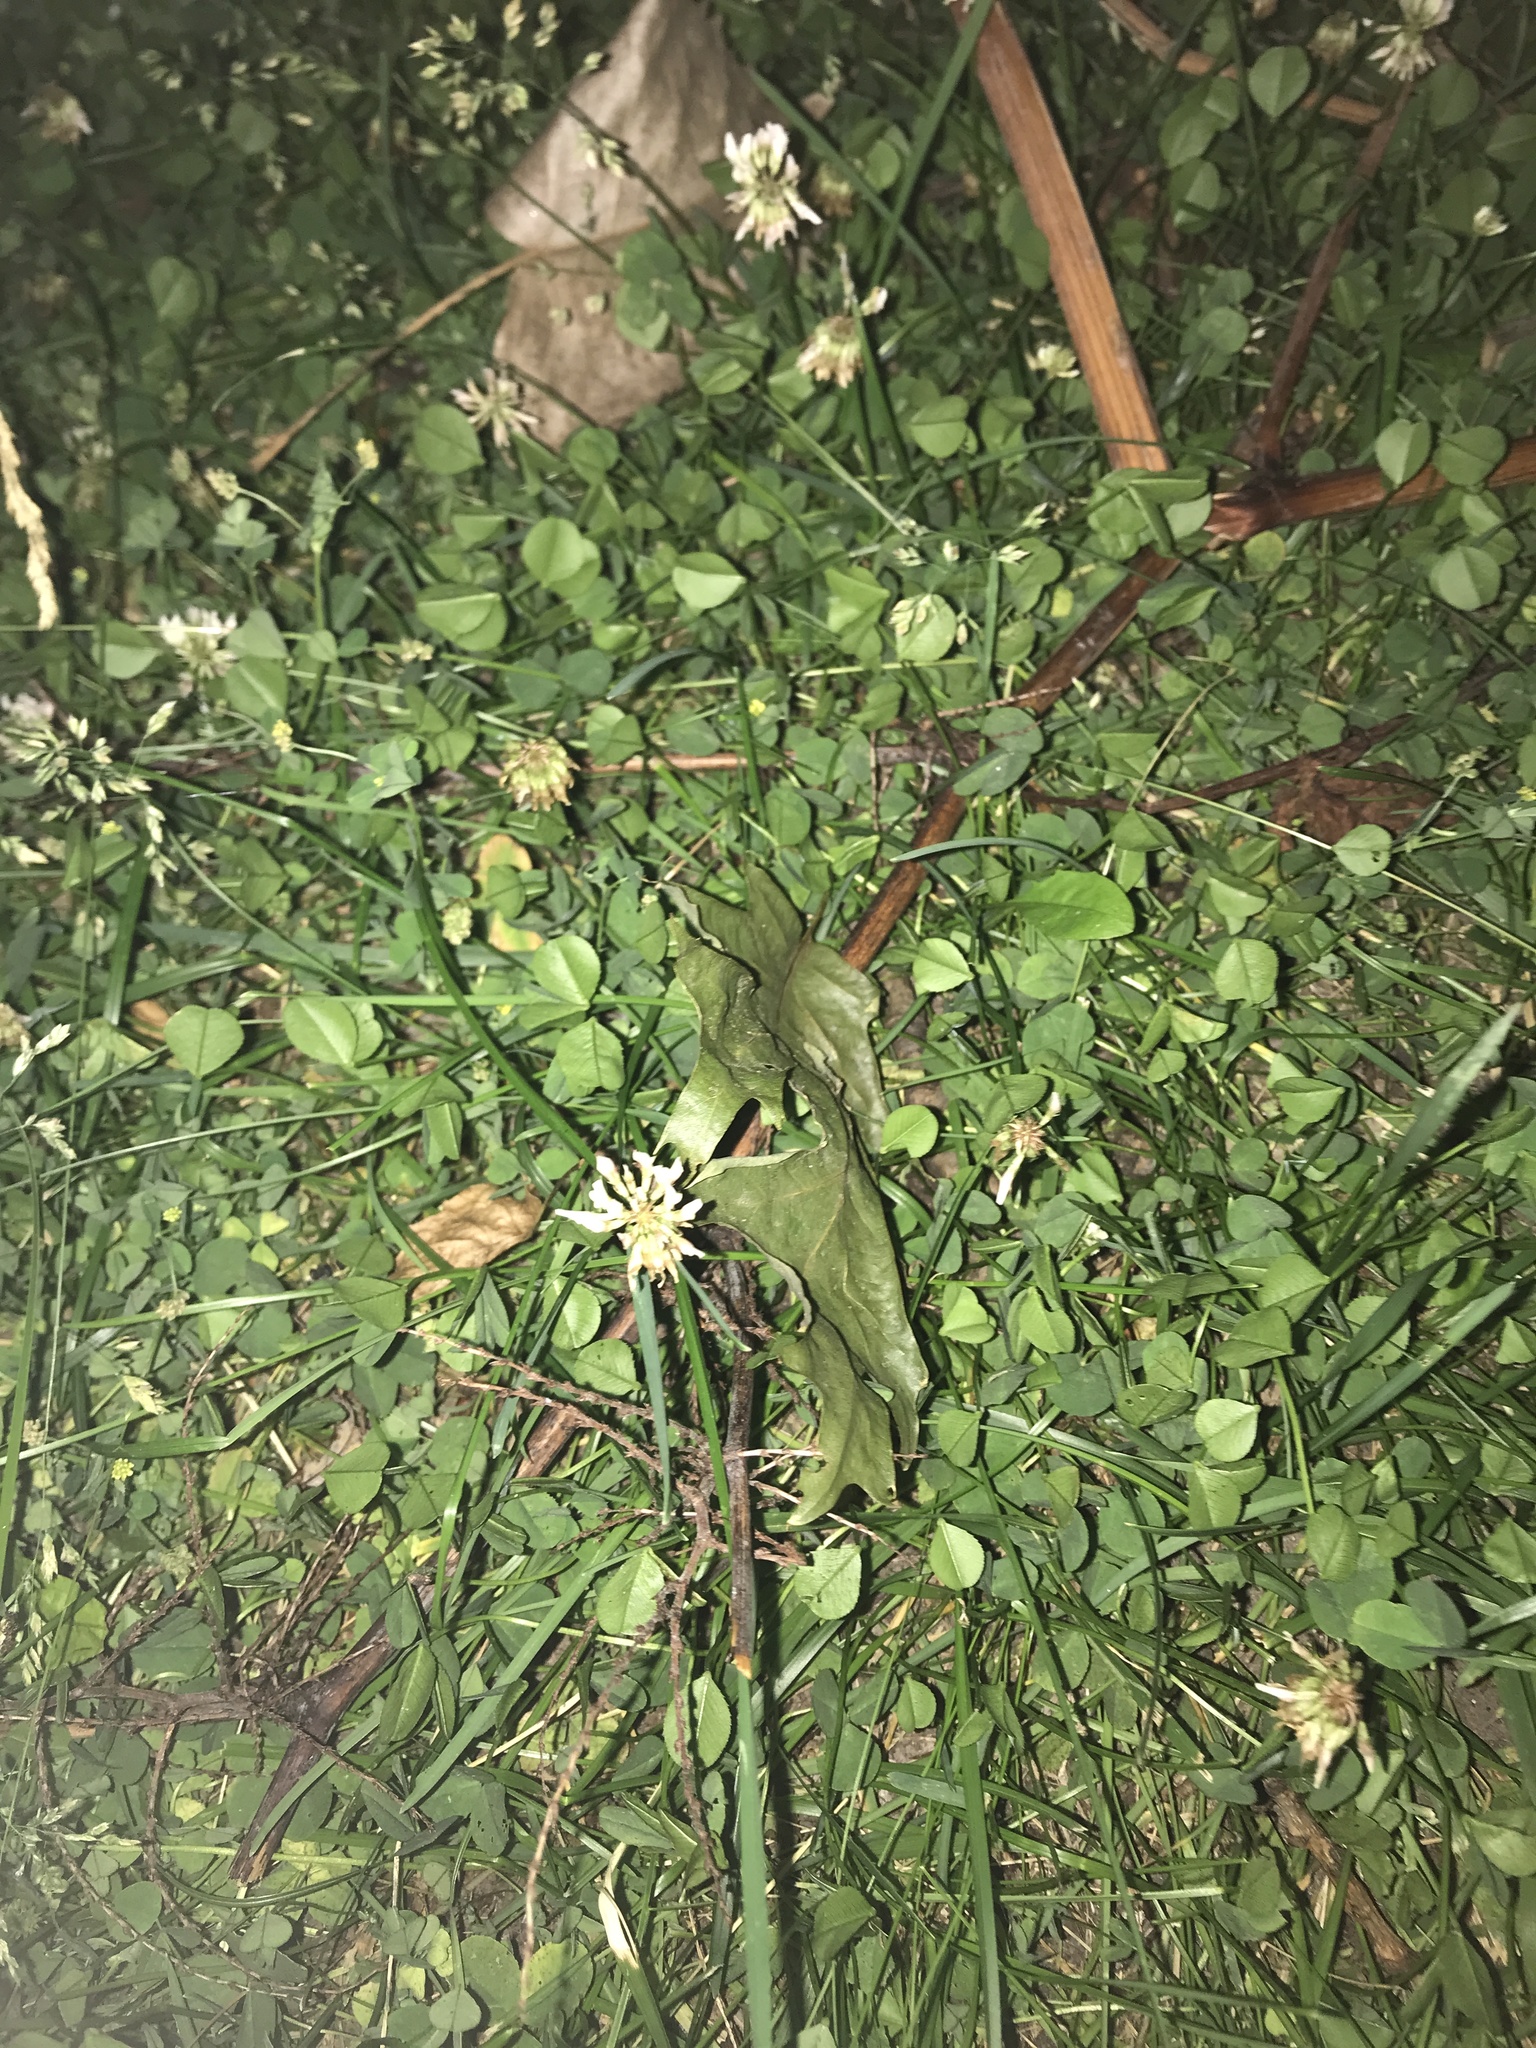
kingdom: Plantae
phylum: Tracheophyta
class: Magnoliopsida
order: Fabales
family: Fabaceae
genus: Trifolium
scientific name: Trifolium repens
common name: White clover
